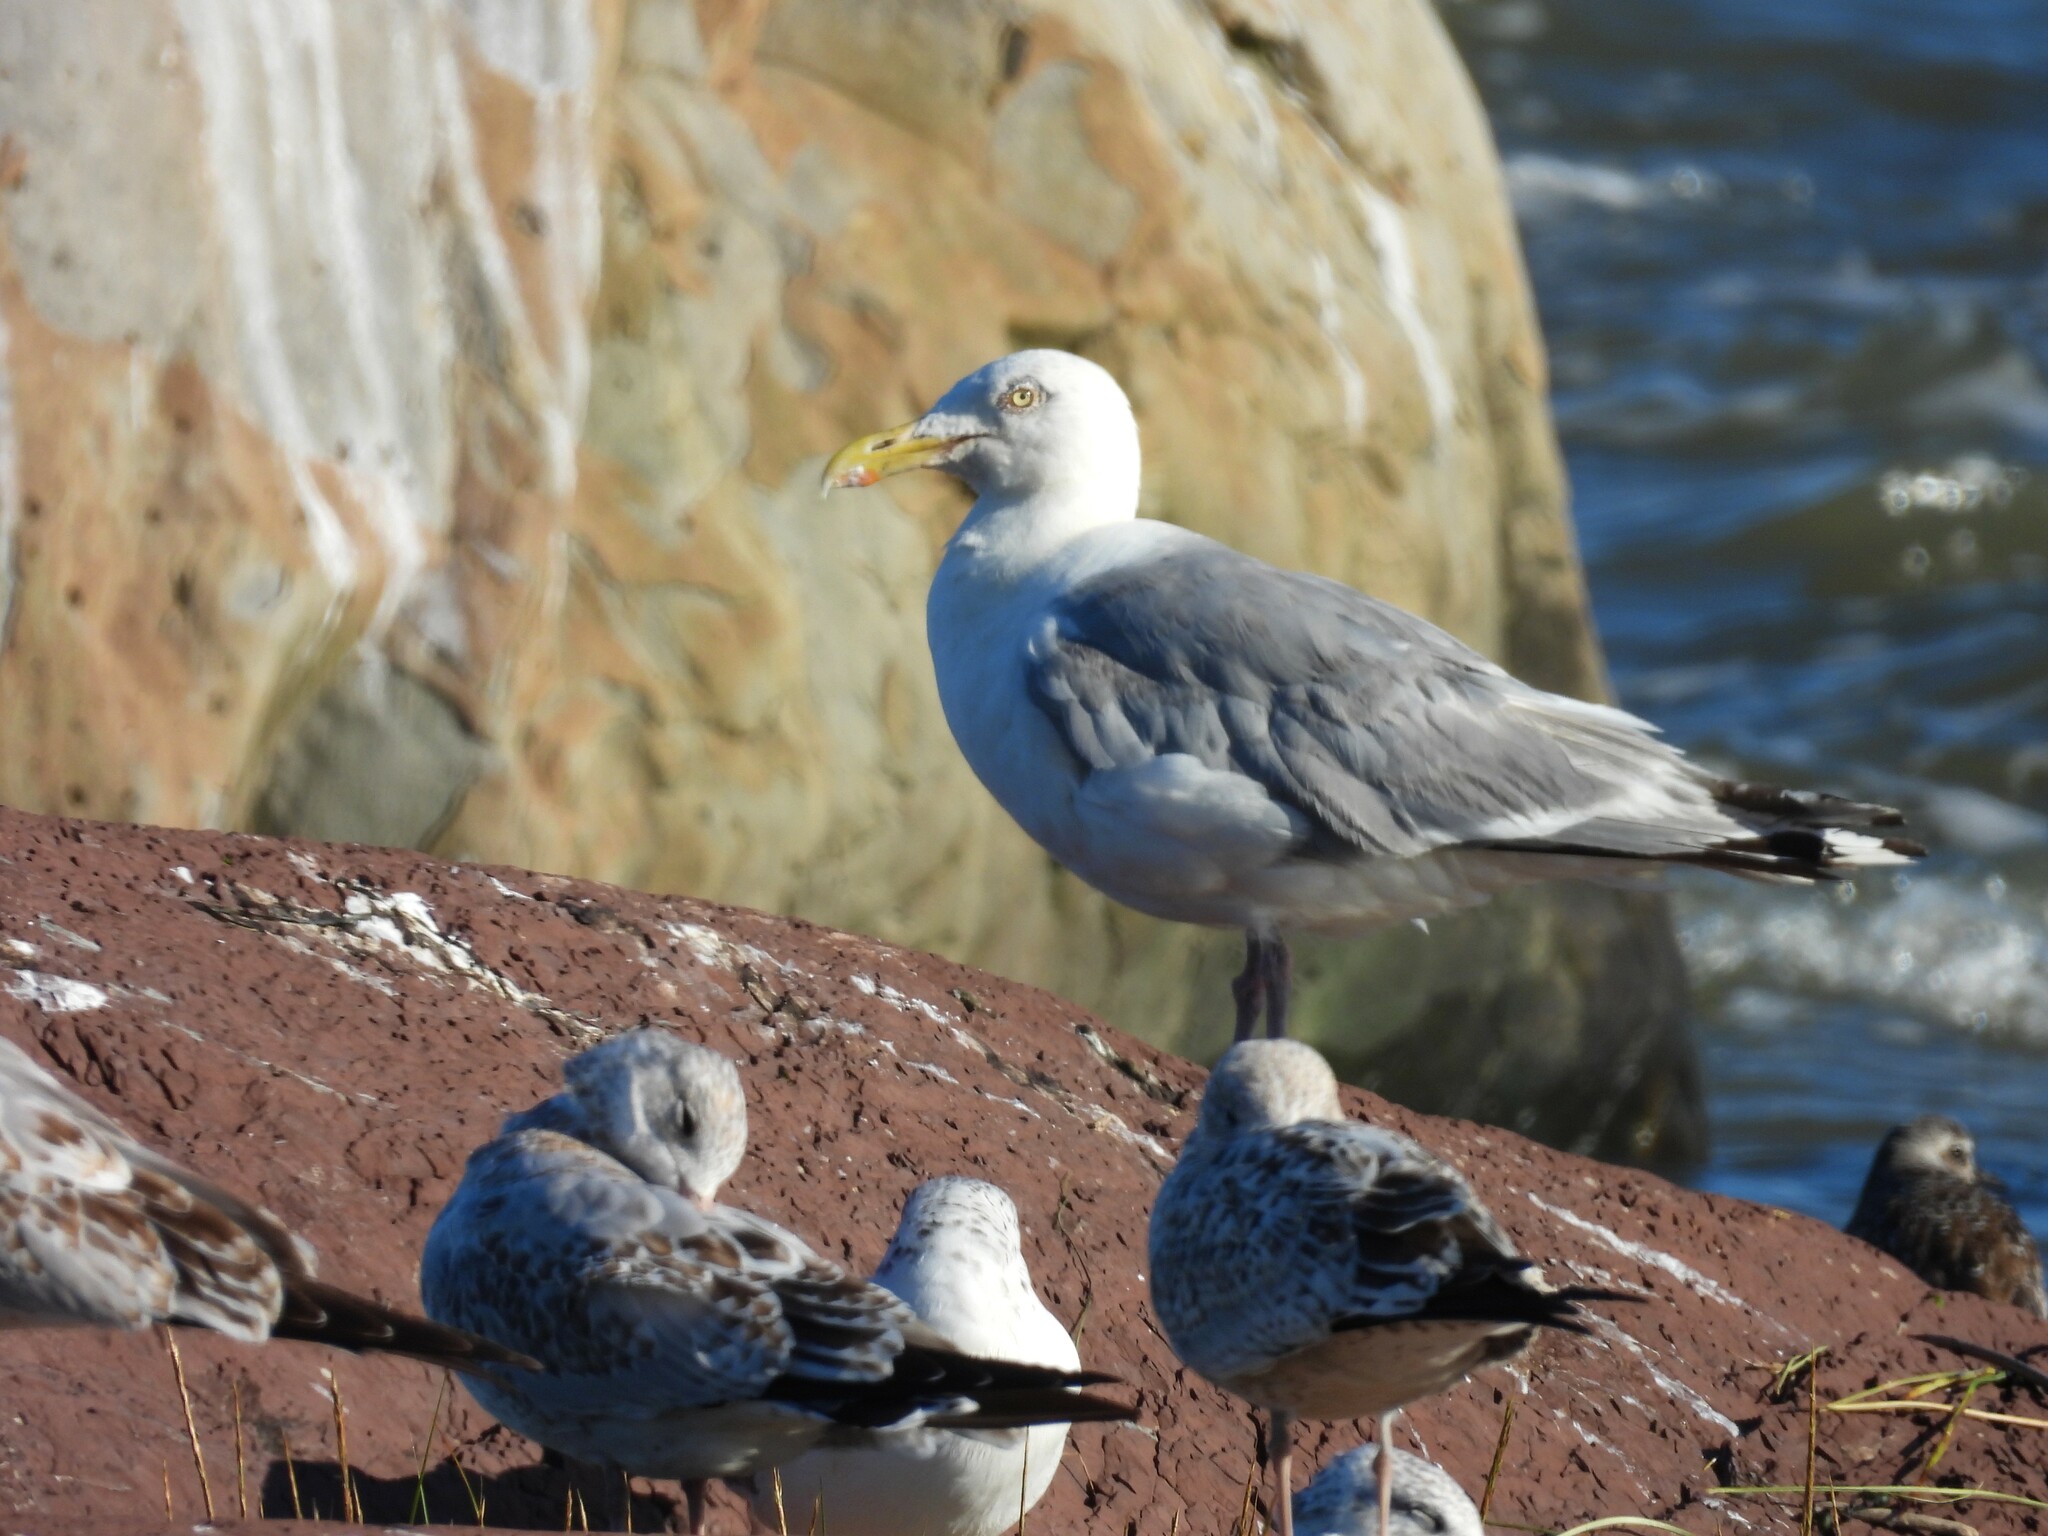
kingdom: Animalia
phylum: Chordata
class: Aves
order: Charadriiformes
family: Laridae
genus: Larus
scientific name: Larus argentatus
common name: Herring gull
